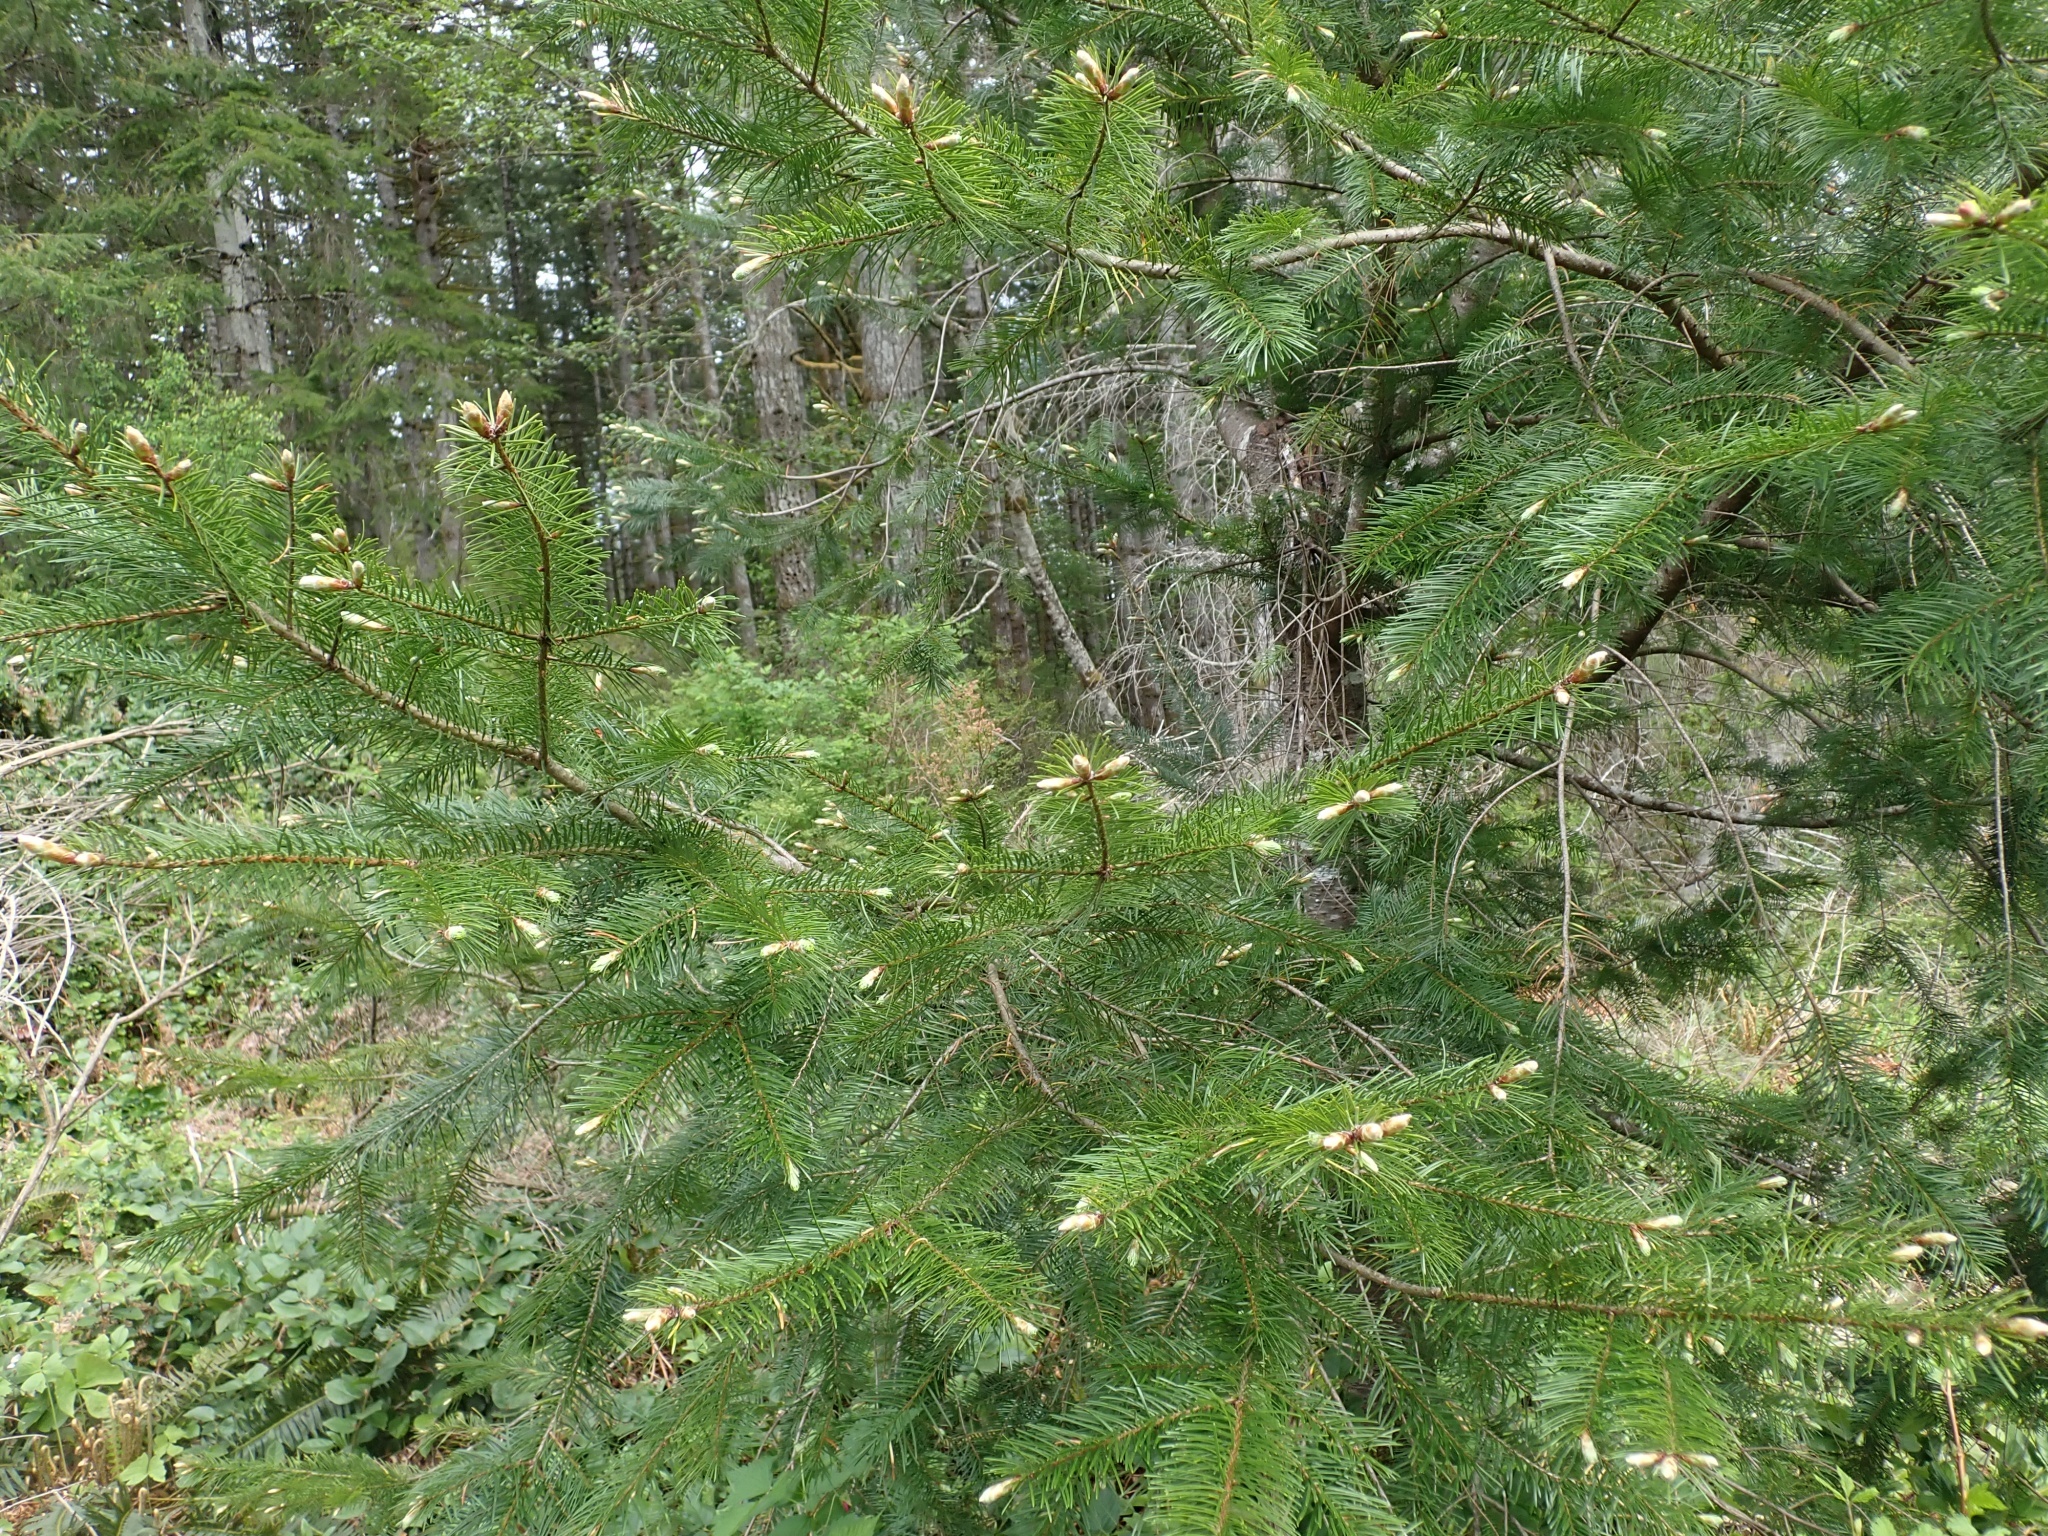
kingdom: Plantae
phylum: Tracheophyta
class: Pinopsida
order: Pinales
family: Pinaceae
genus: Pseudotsuga
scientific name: Pseudotsuga menziesii
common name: Douglas fir
